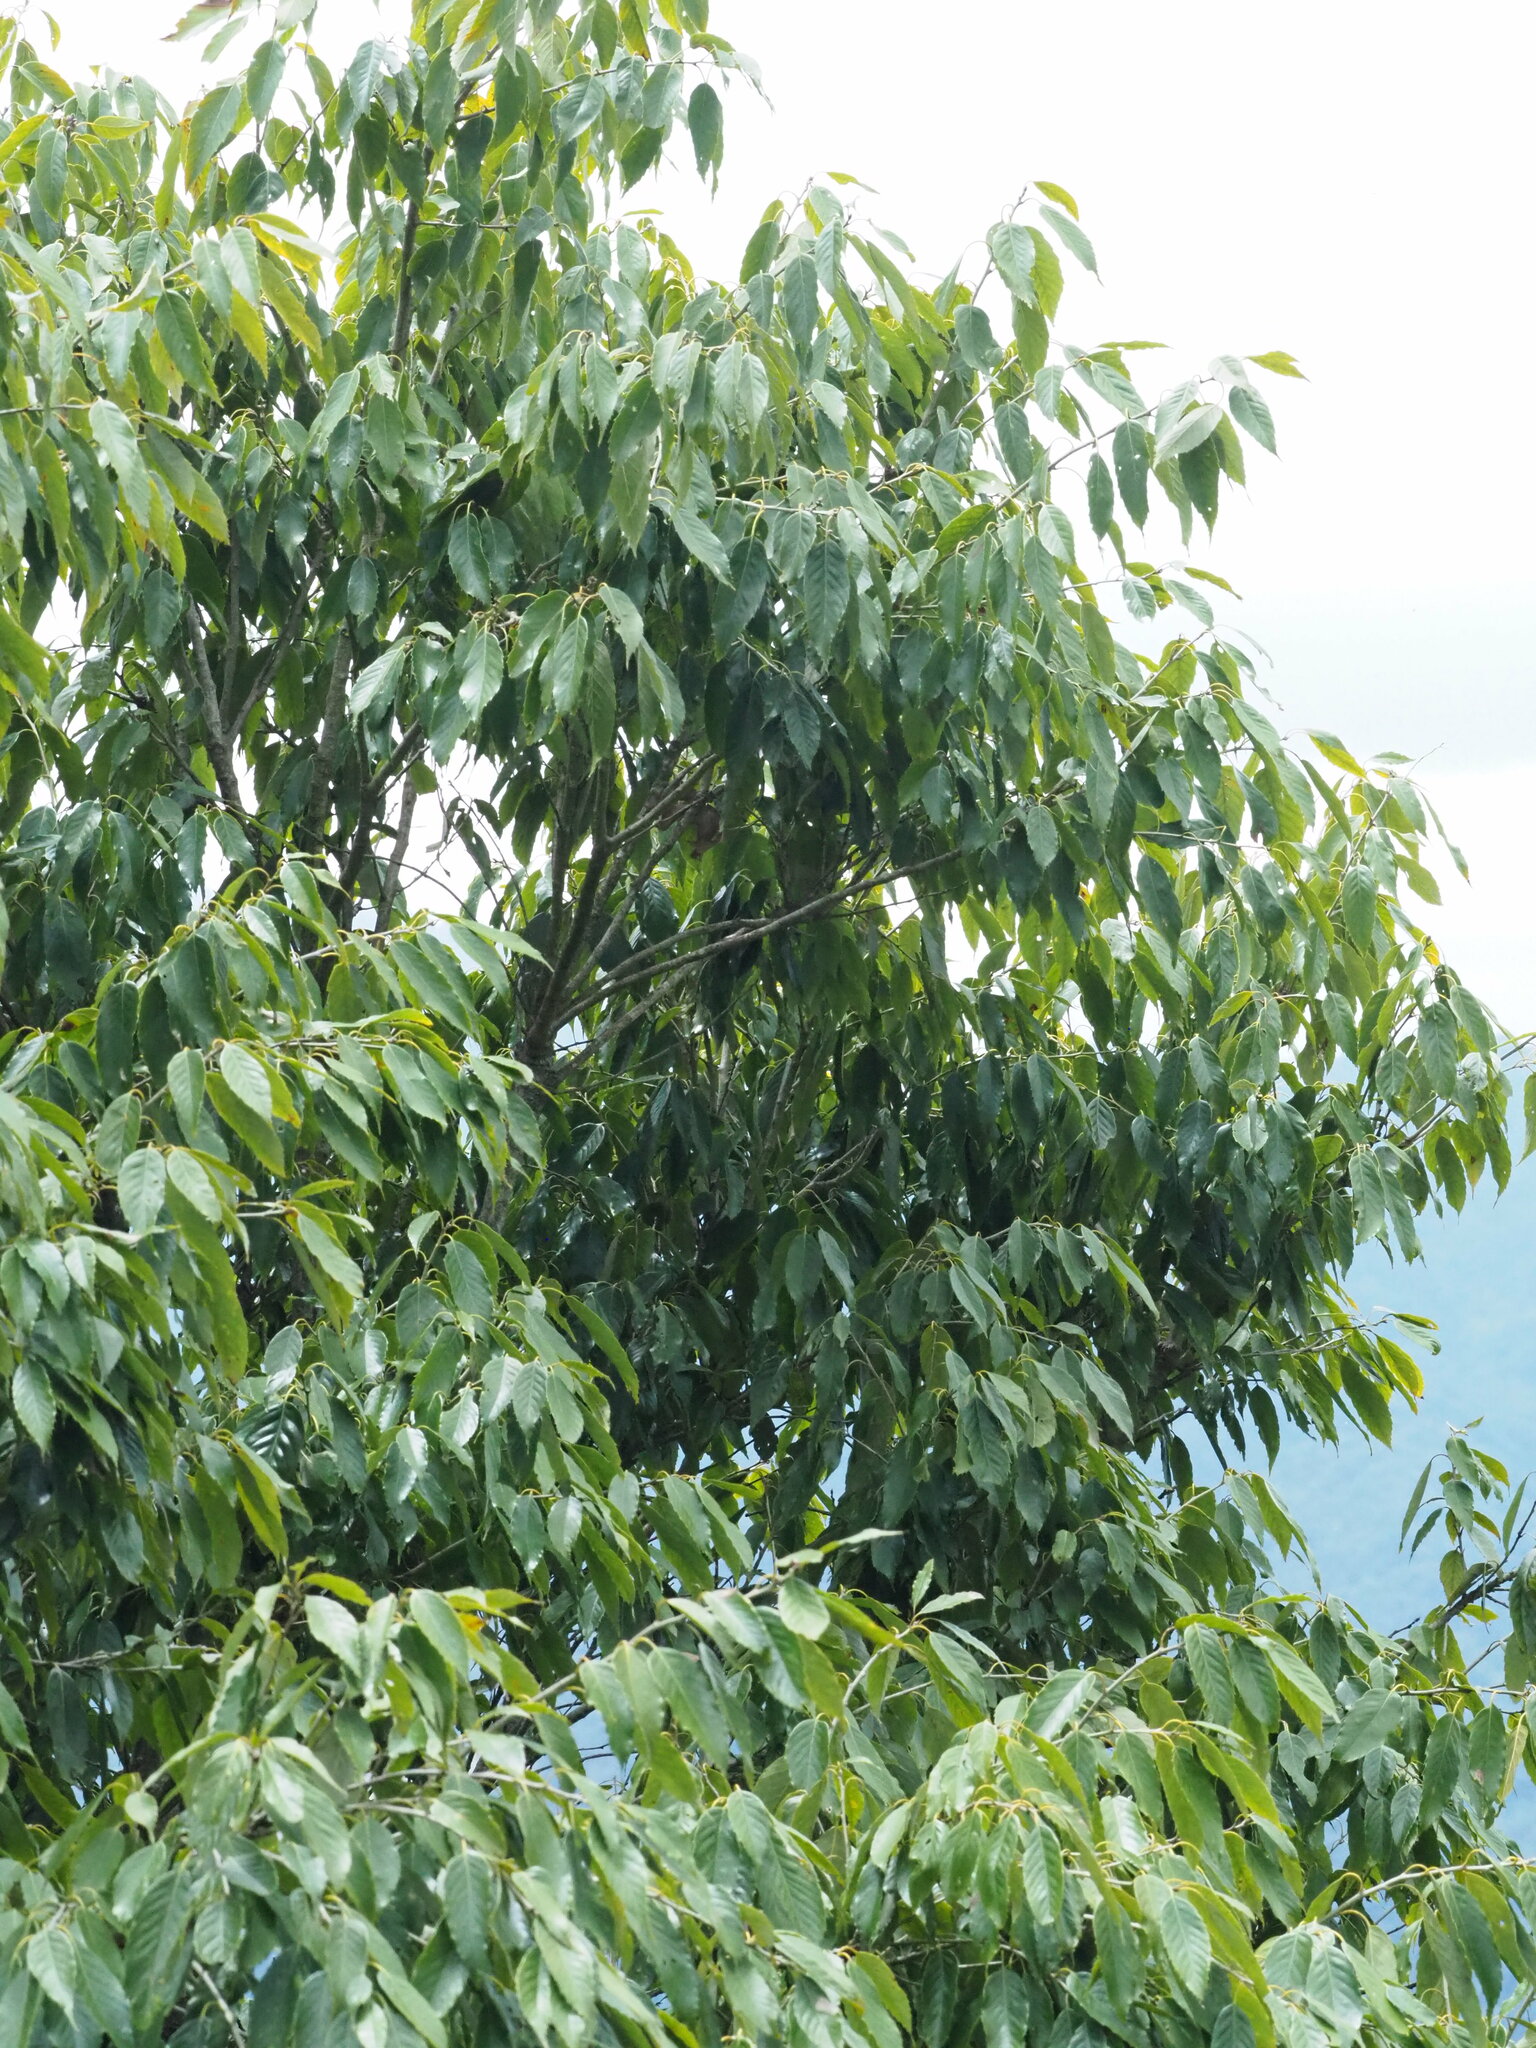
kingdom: Plantae
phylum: Tracheophyta
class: Magnoliopsida
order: Fagales
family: Fagaceae
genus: Quercus
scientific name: Quercus stenophylloides
